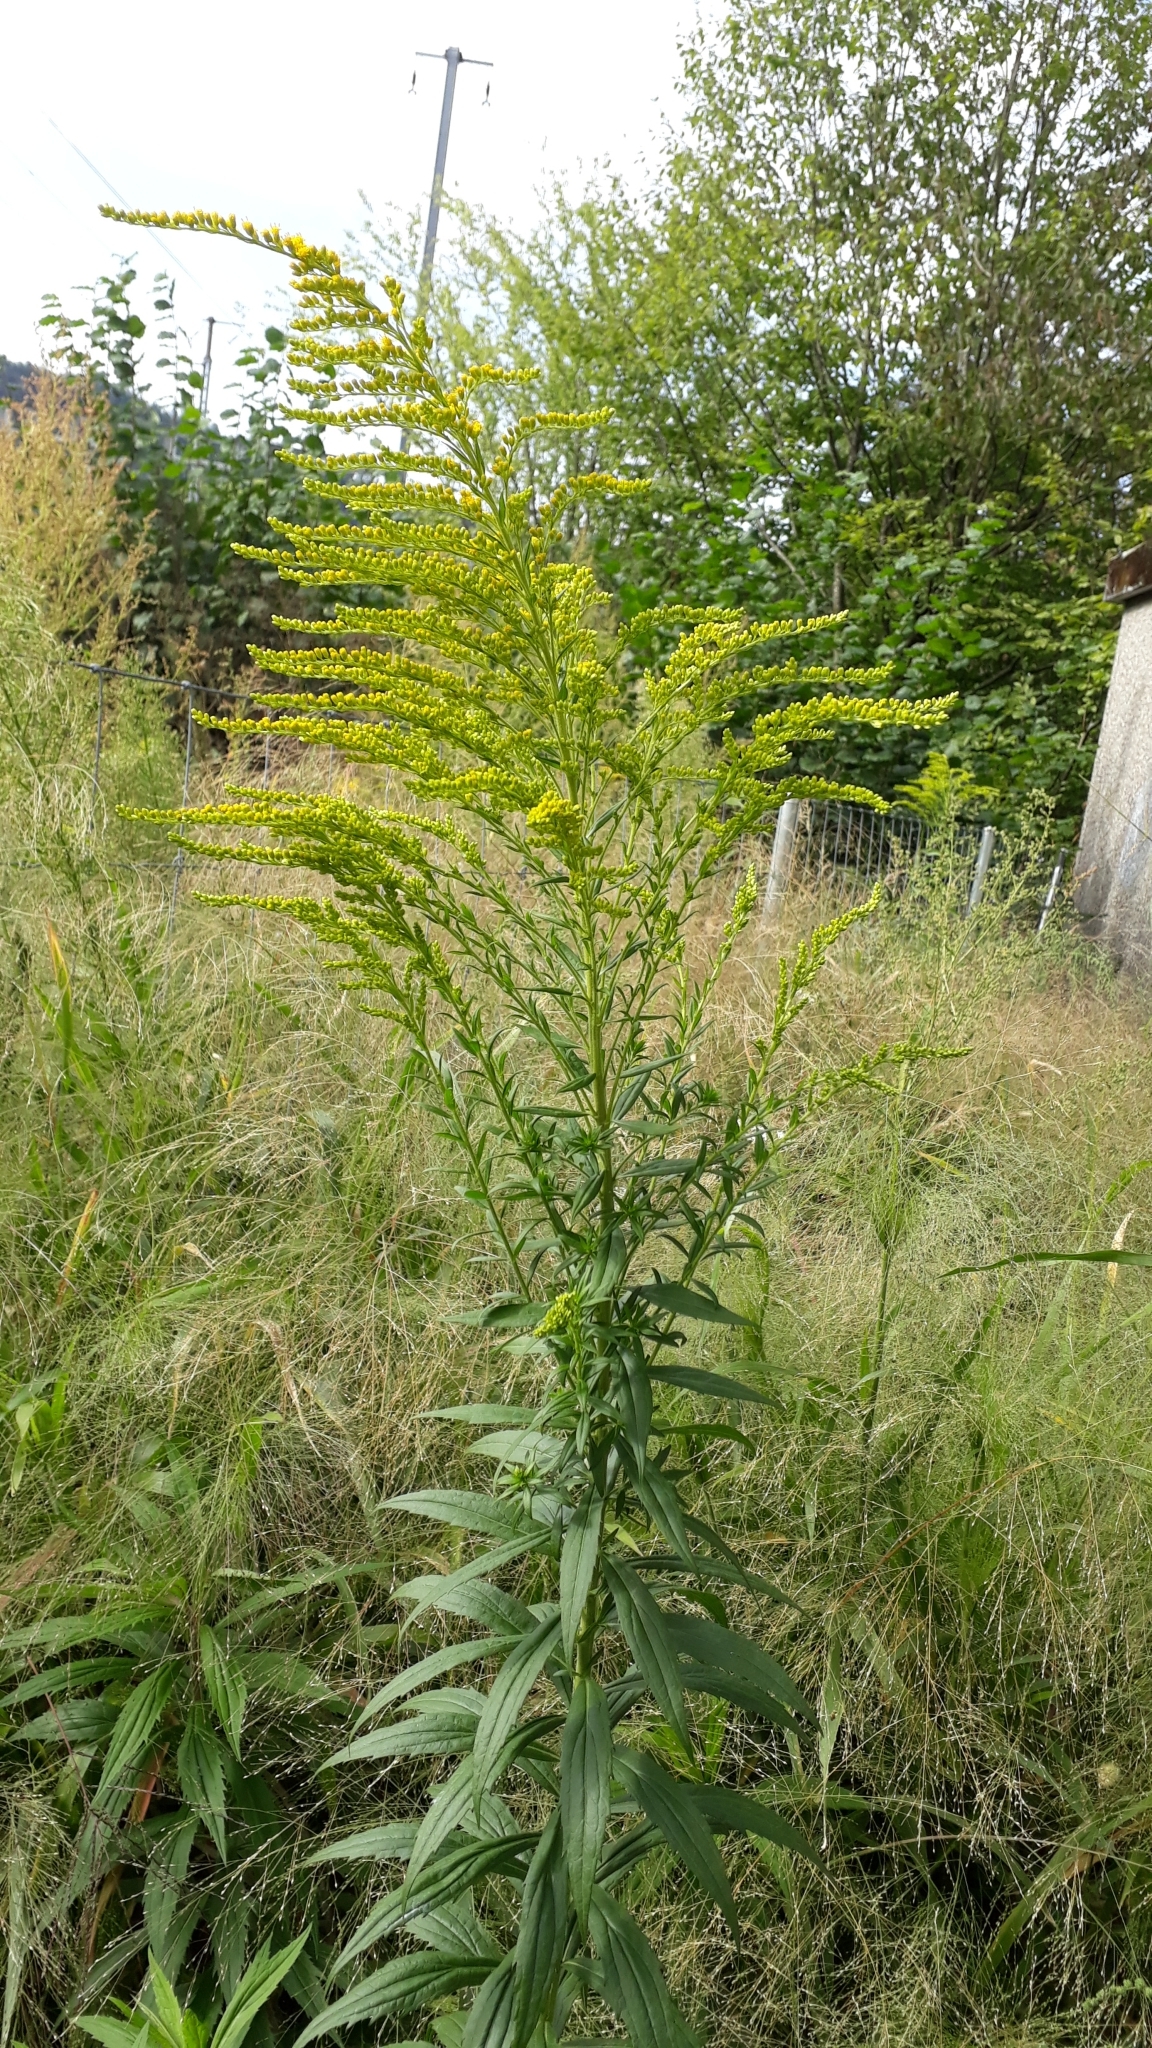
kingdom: Plantae
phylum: Tracheophyta
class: Magnoliopsida
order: Asterales
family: Asteraceae
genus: Solidago
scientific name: Solidago canadensis
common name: Canada goldenrod
